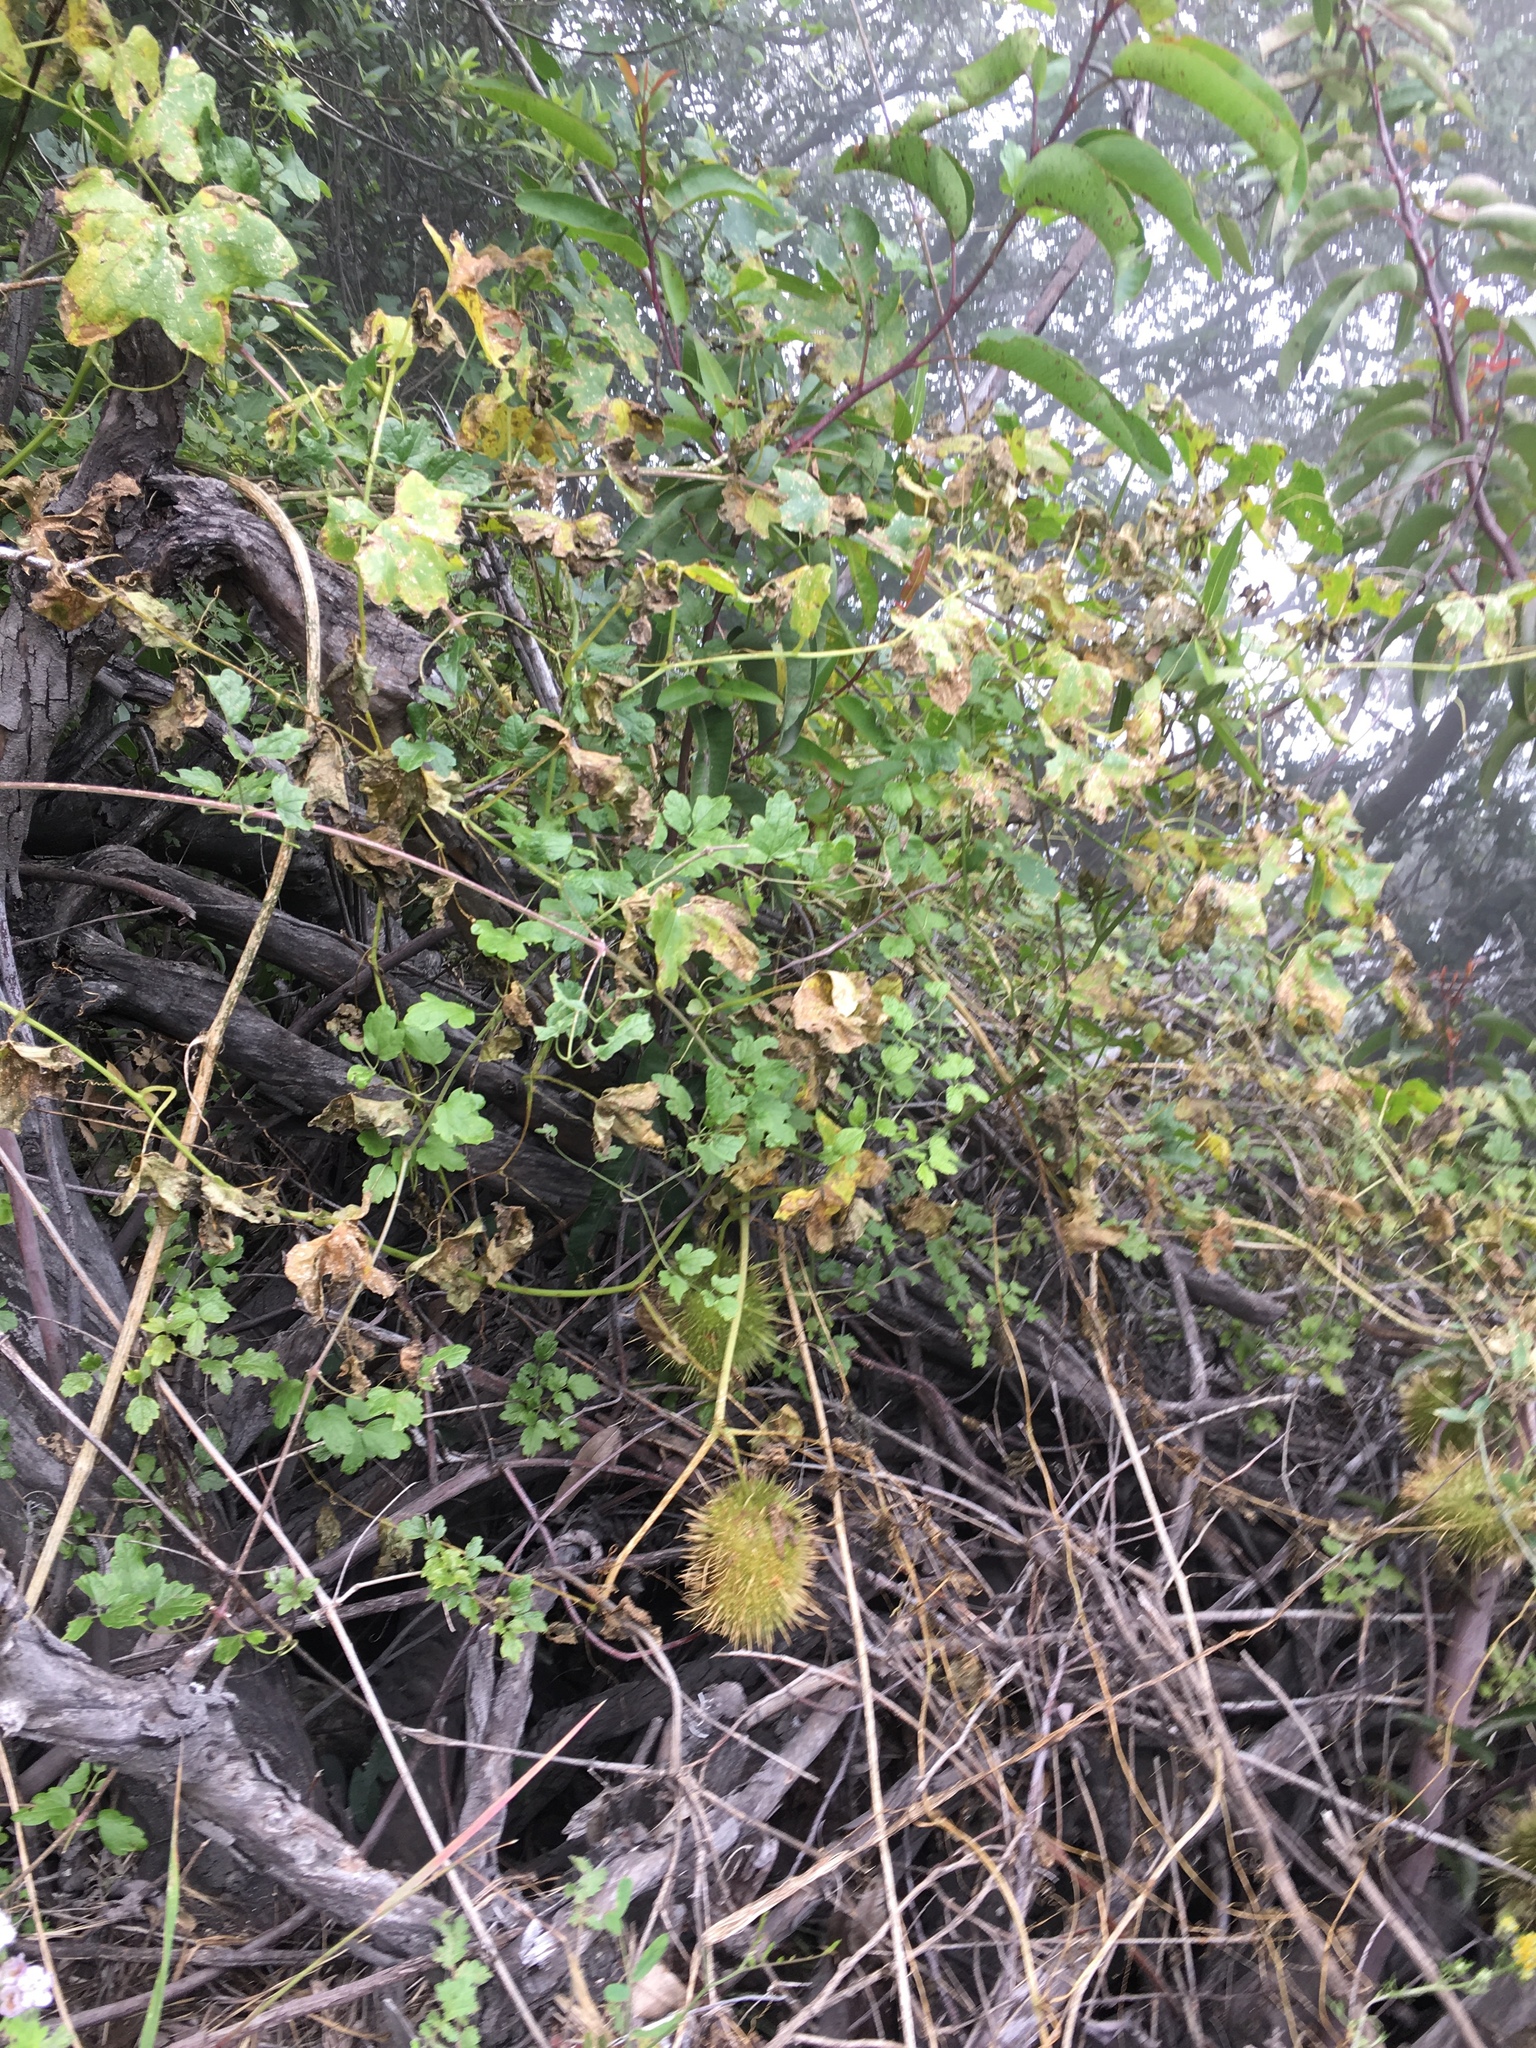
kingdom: Plantae
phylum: Tracheophyta
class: Magnoliopsida
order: Cucurbitales
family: Cucurbitaceae
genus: Marah
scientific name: Marah macrocarpa
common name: Cucamonga manroot
